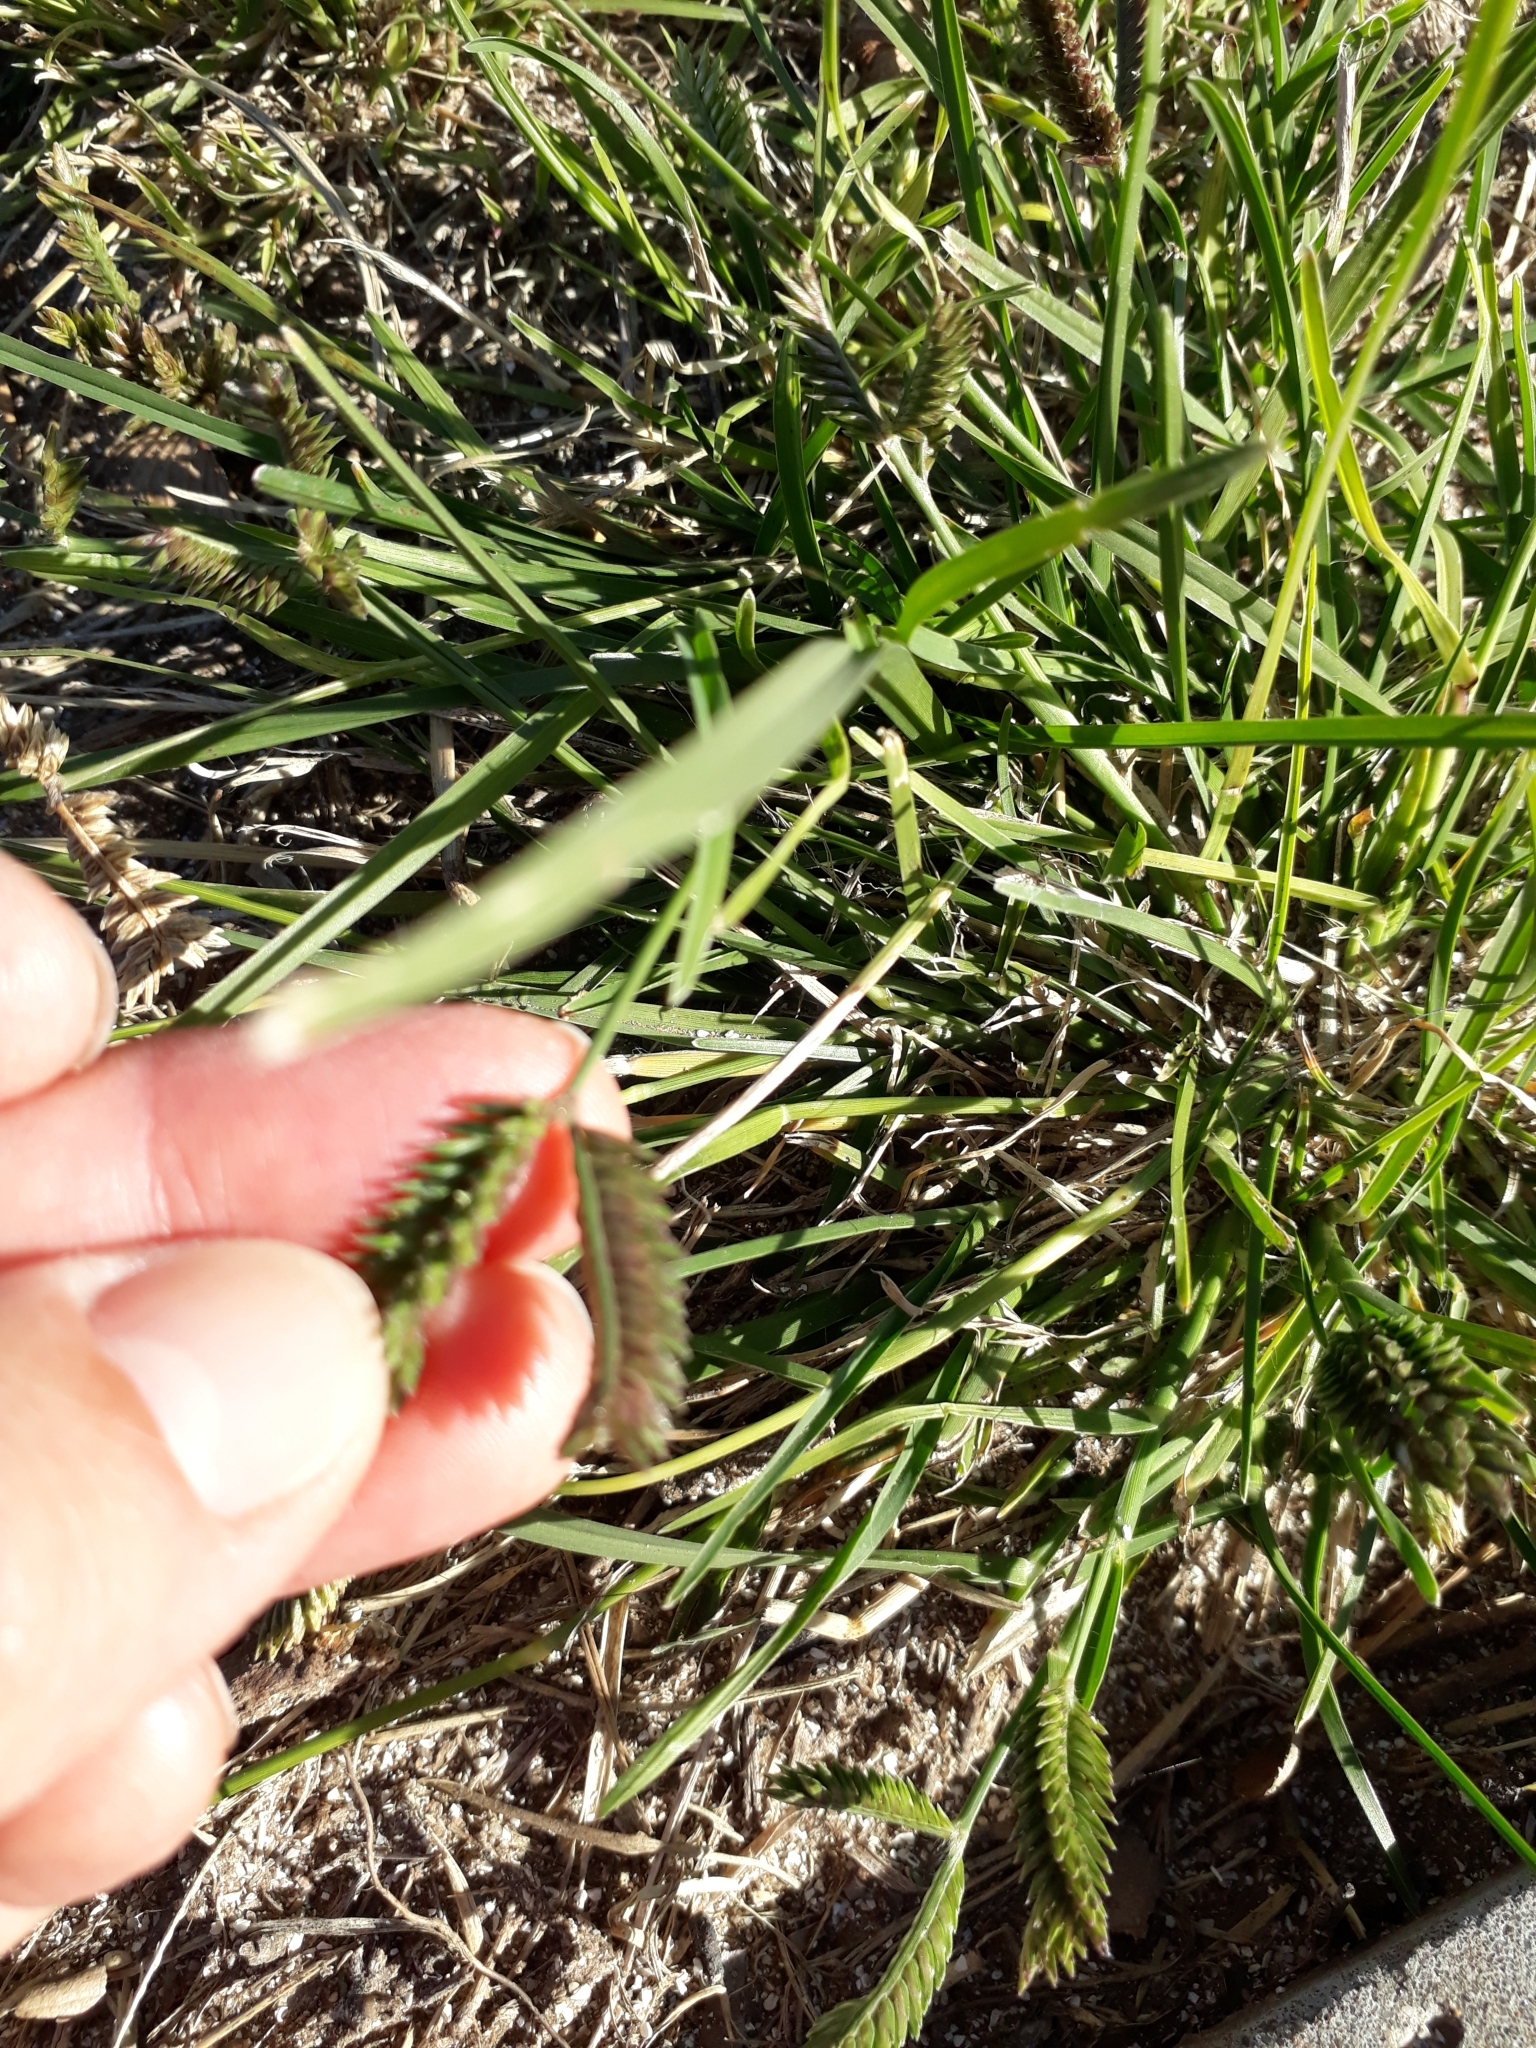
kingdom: Plantae
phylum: Tracheophyta
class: Liliopsida
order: Poales
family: Poaceae
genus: Eleusine
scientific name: Eleusine tristachya
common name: American yard-grass
